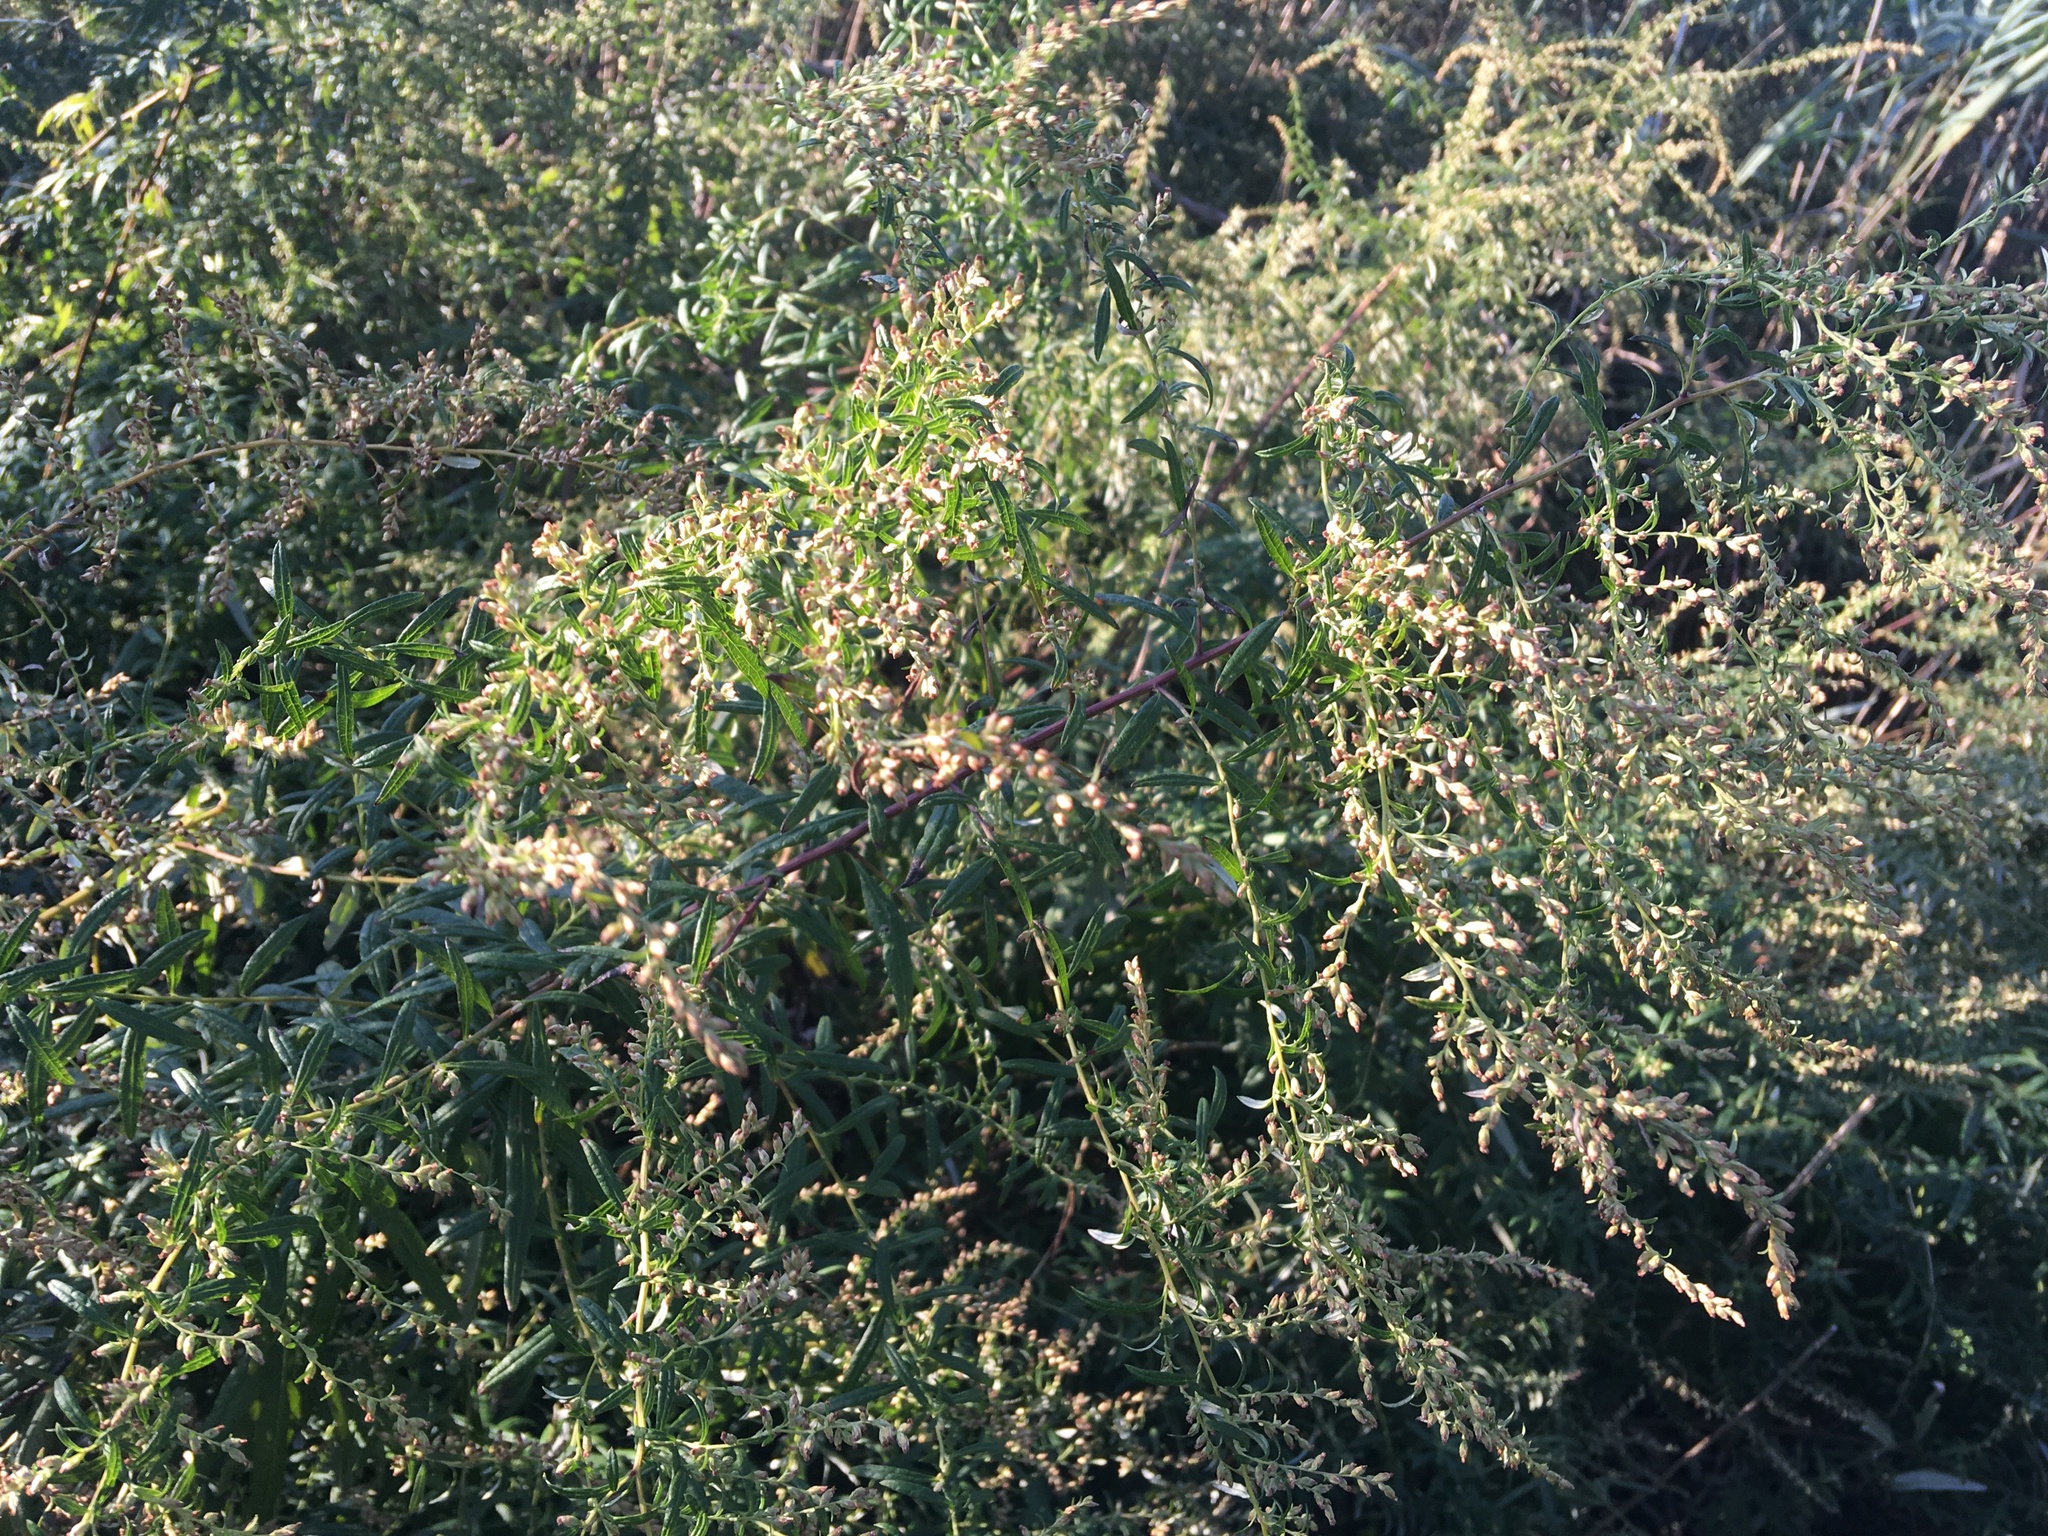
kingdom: Plantae
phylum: Tracheophyta
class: Magnoliopsida
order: Asterales
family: Asteraceae
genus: Artemisia
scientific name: Artemisia vulgaris
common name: Mugwort
